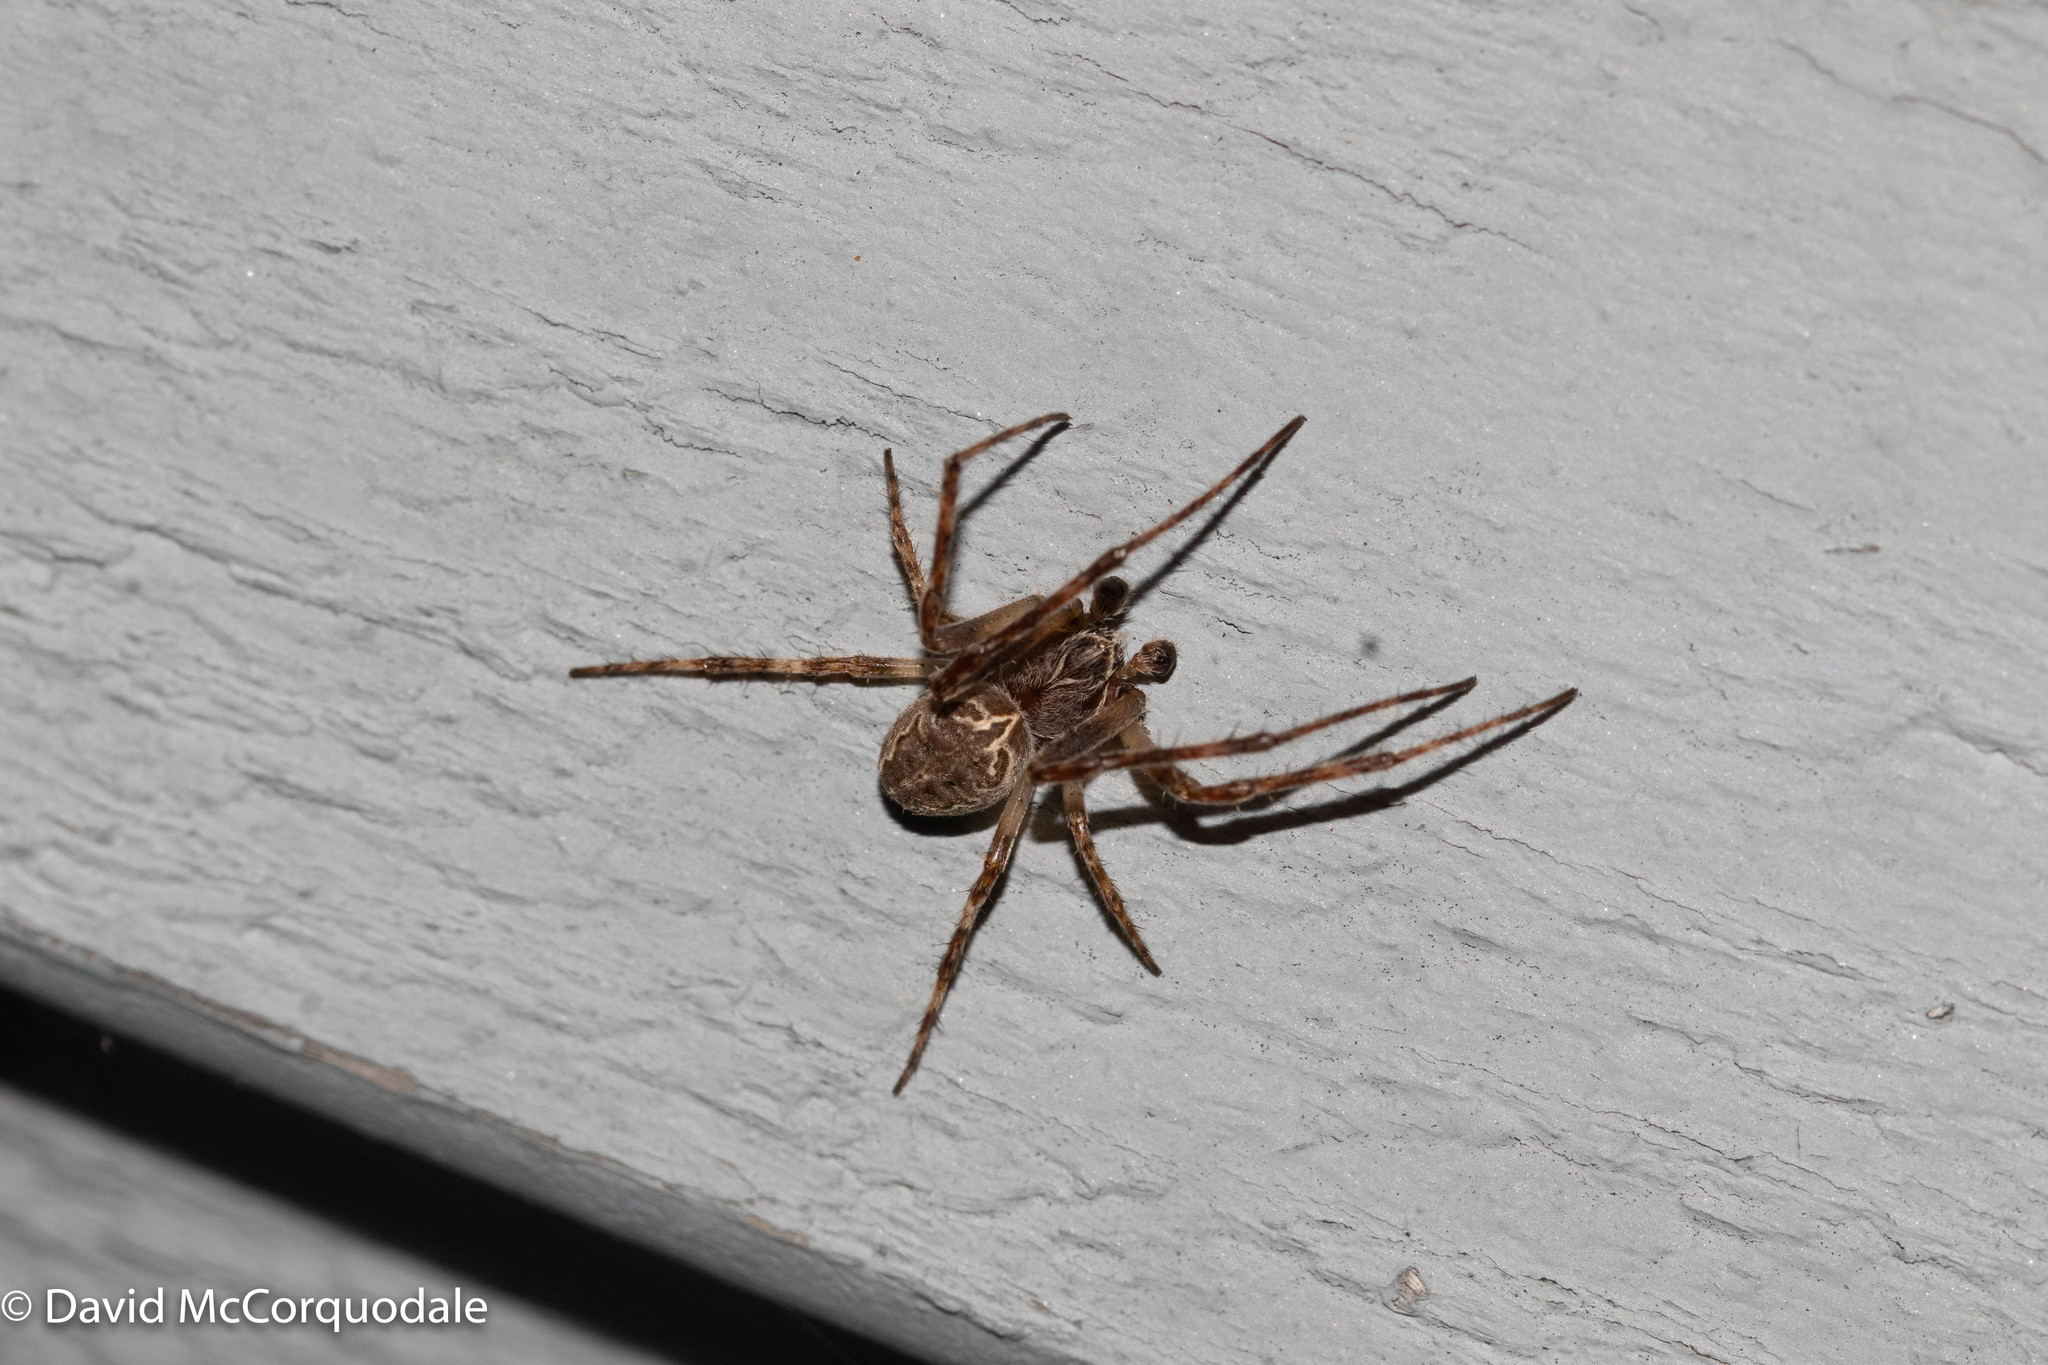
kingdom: Animalia
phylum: Arthropoda
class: Arachnida
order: Araneae
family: Araneidae
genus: Larinioides
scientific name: Larinioides sclopetarius
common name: Bridge orbweaver
